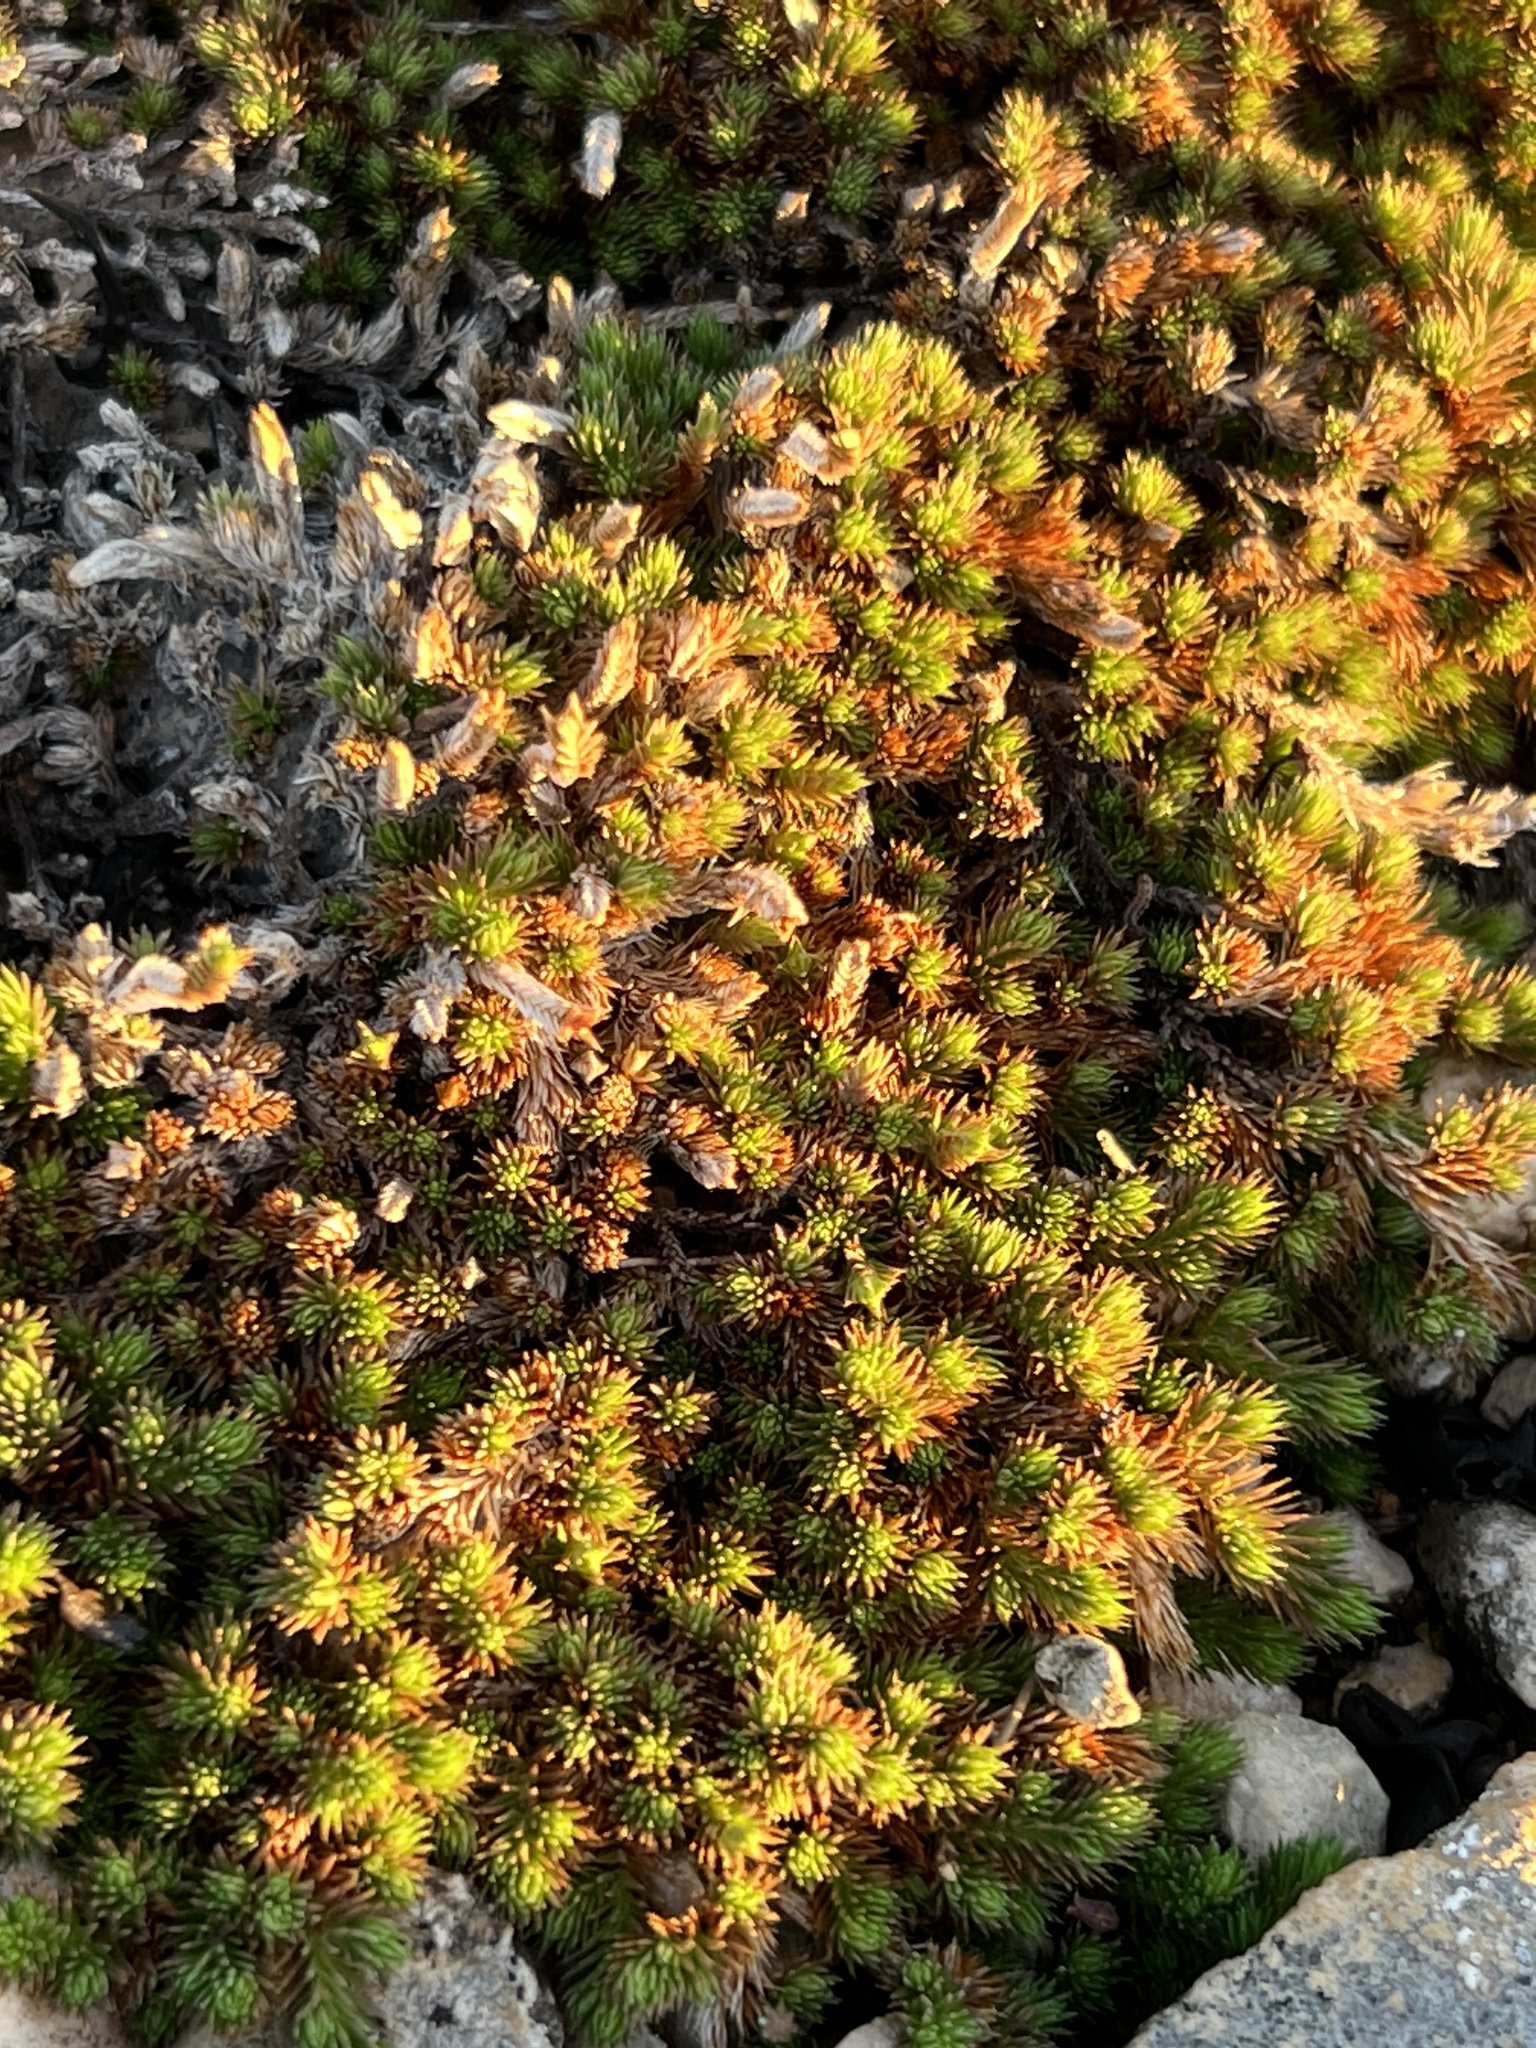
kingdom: Plantae
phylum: Tracheophyta
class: Lycopodiopsida
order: Selaginellales
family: Selaginellaceae
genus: Selaginella
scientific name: Selaginella wrightii
